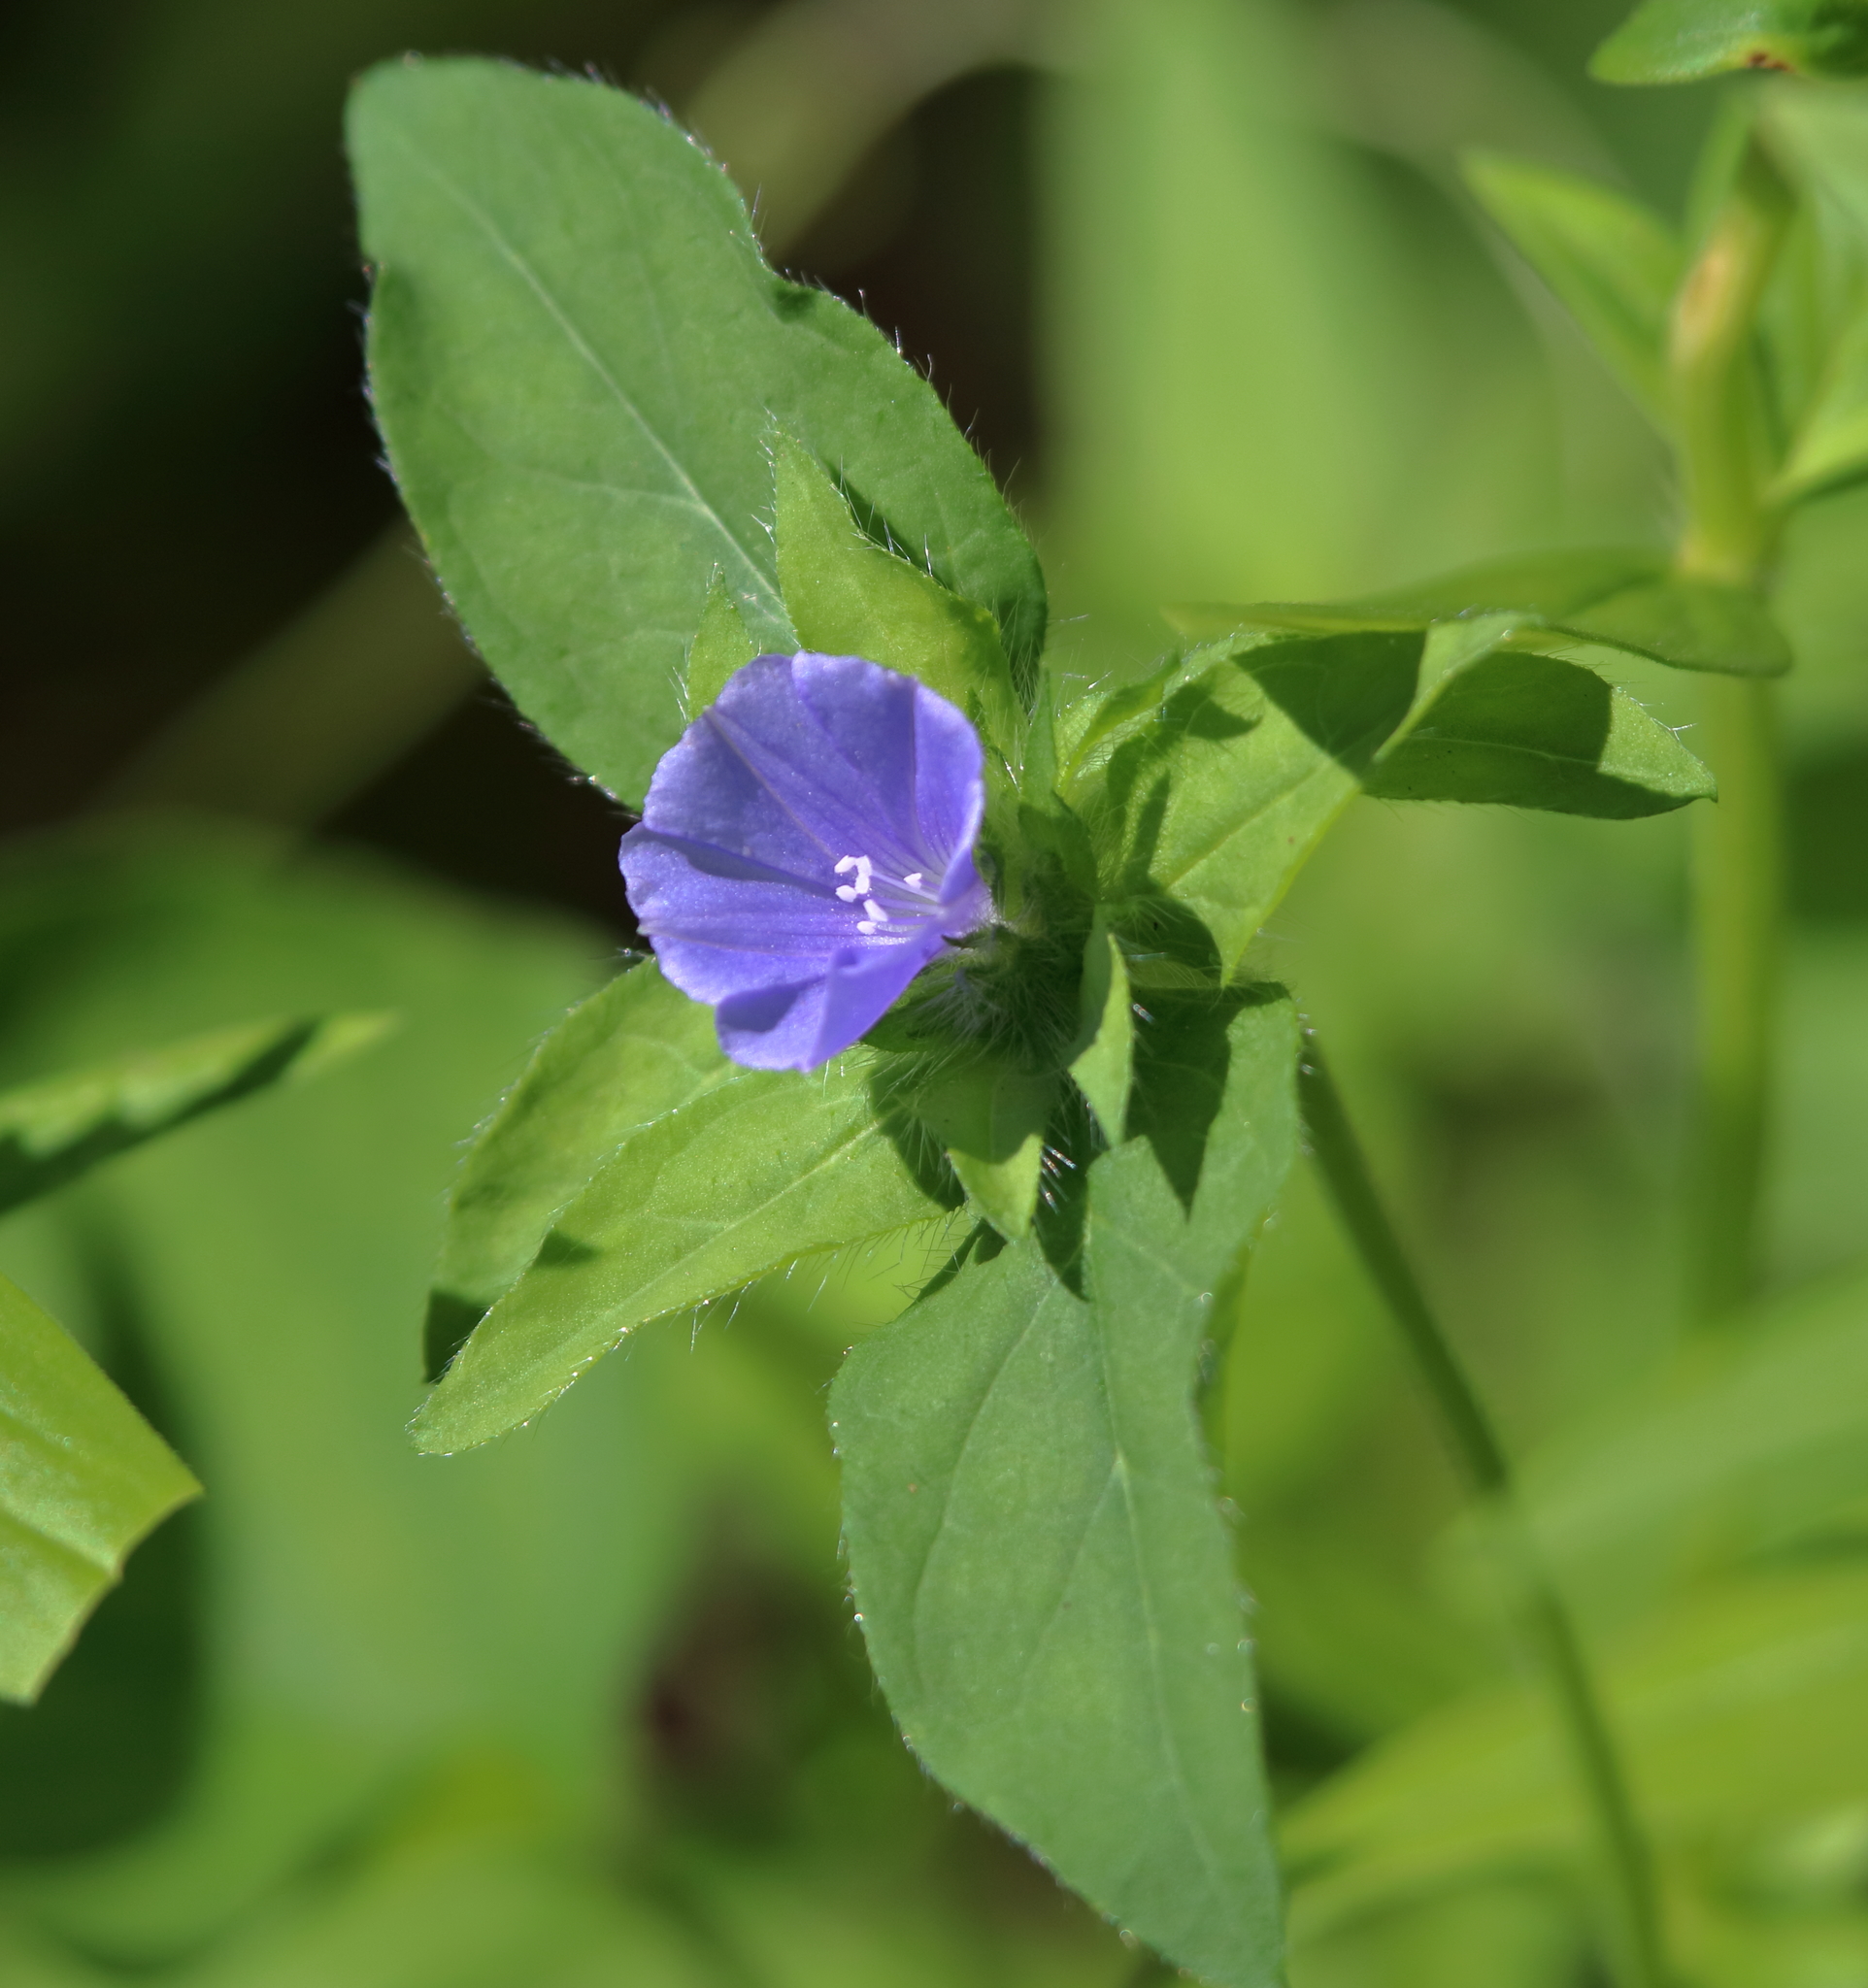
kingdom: Plantae
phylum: Tracheophyta
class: Magnoliopsida
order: Solanales
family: Convolvulaceae
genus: Jacquemontia
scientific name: Jacquemontia tamnifolia
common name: Hairy clustervine
